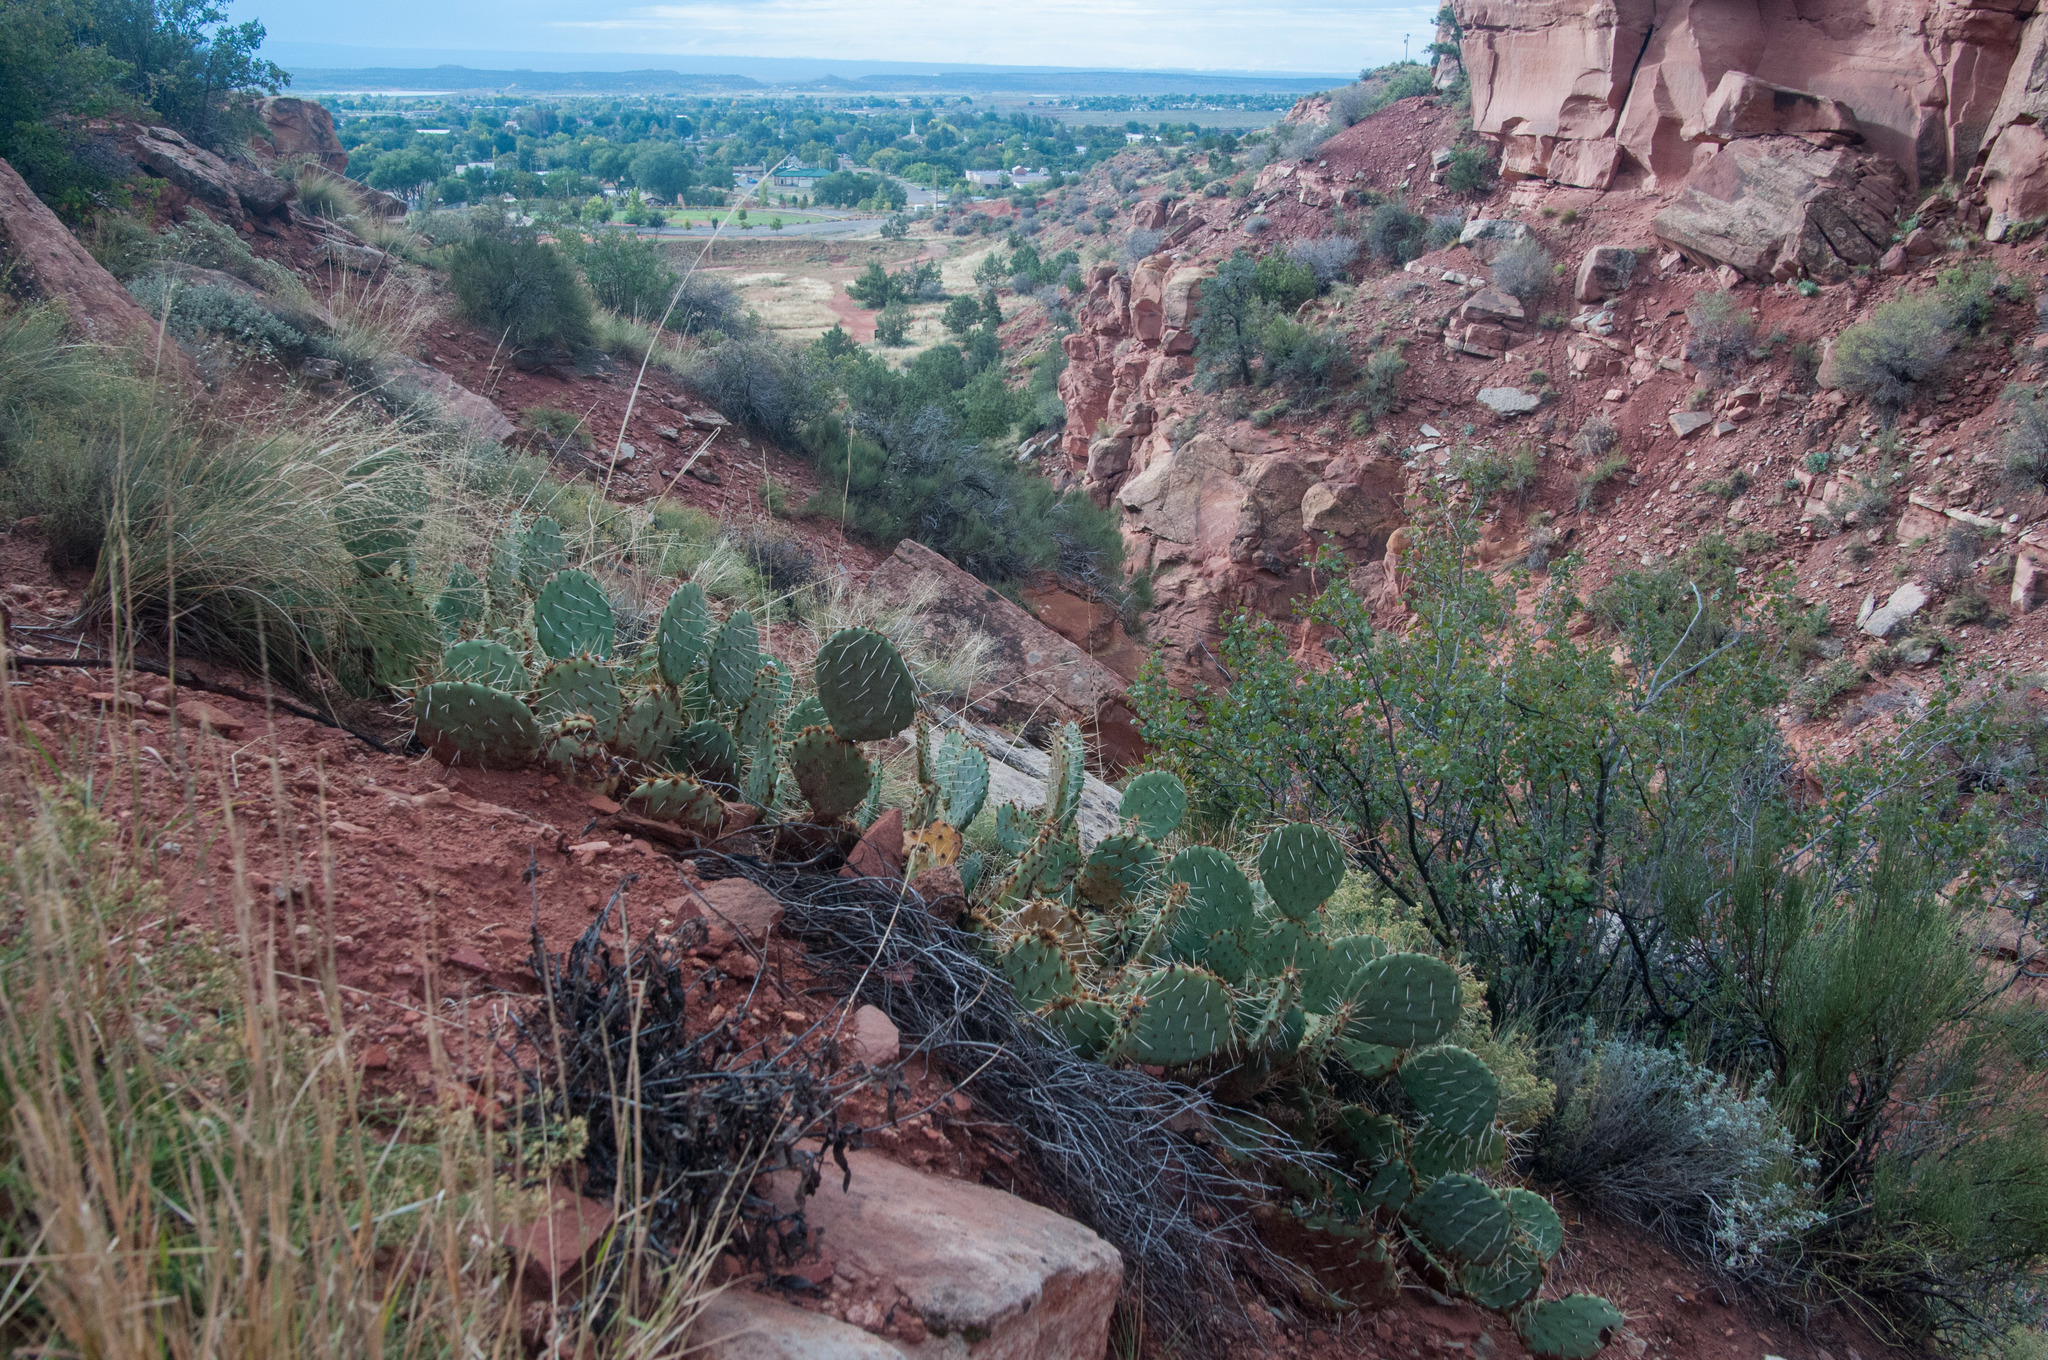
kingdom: Plantae
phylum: Tracheophyta
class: Magnoliopsida
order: Caryophyllales
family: Cactaceae
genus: Opuntia
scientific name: Opuntia phaeacantha
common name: New mexico prickly-pear
